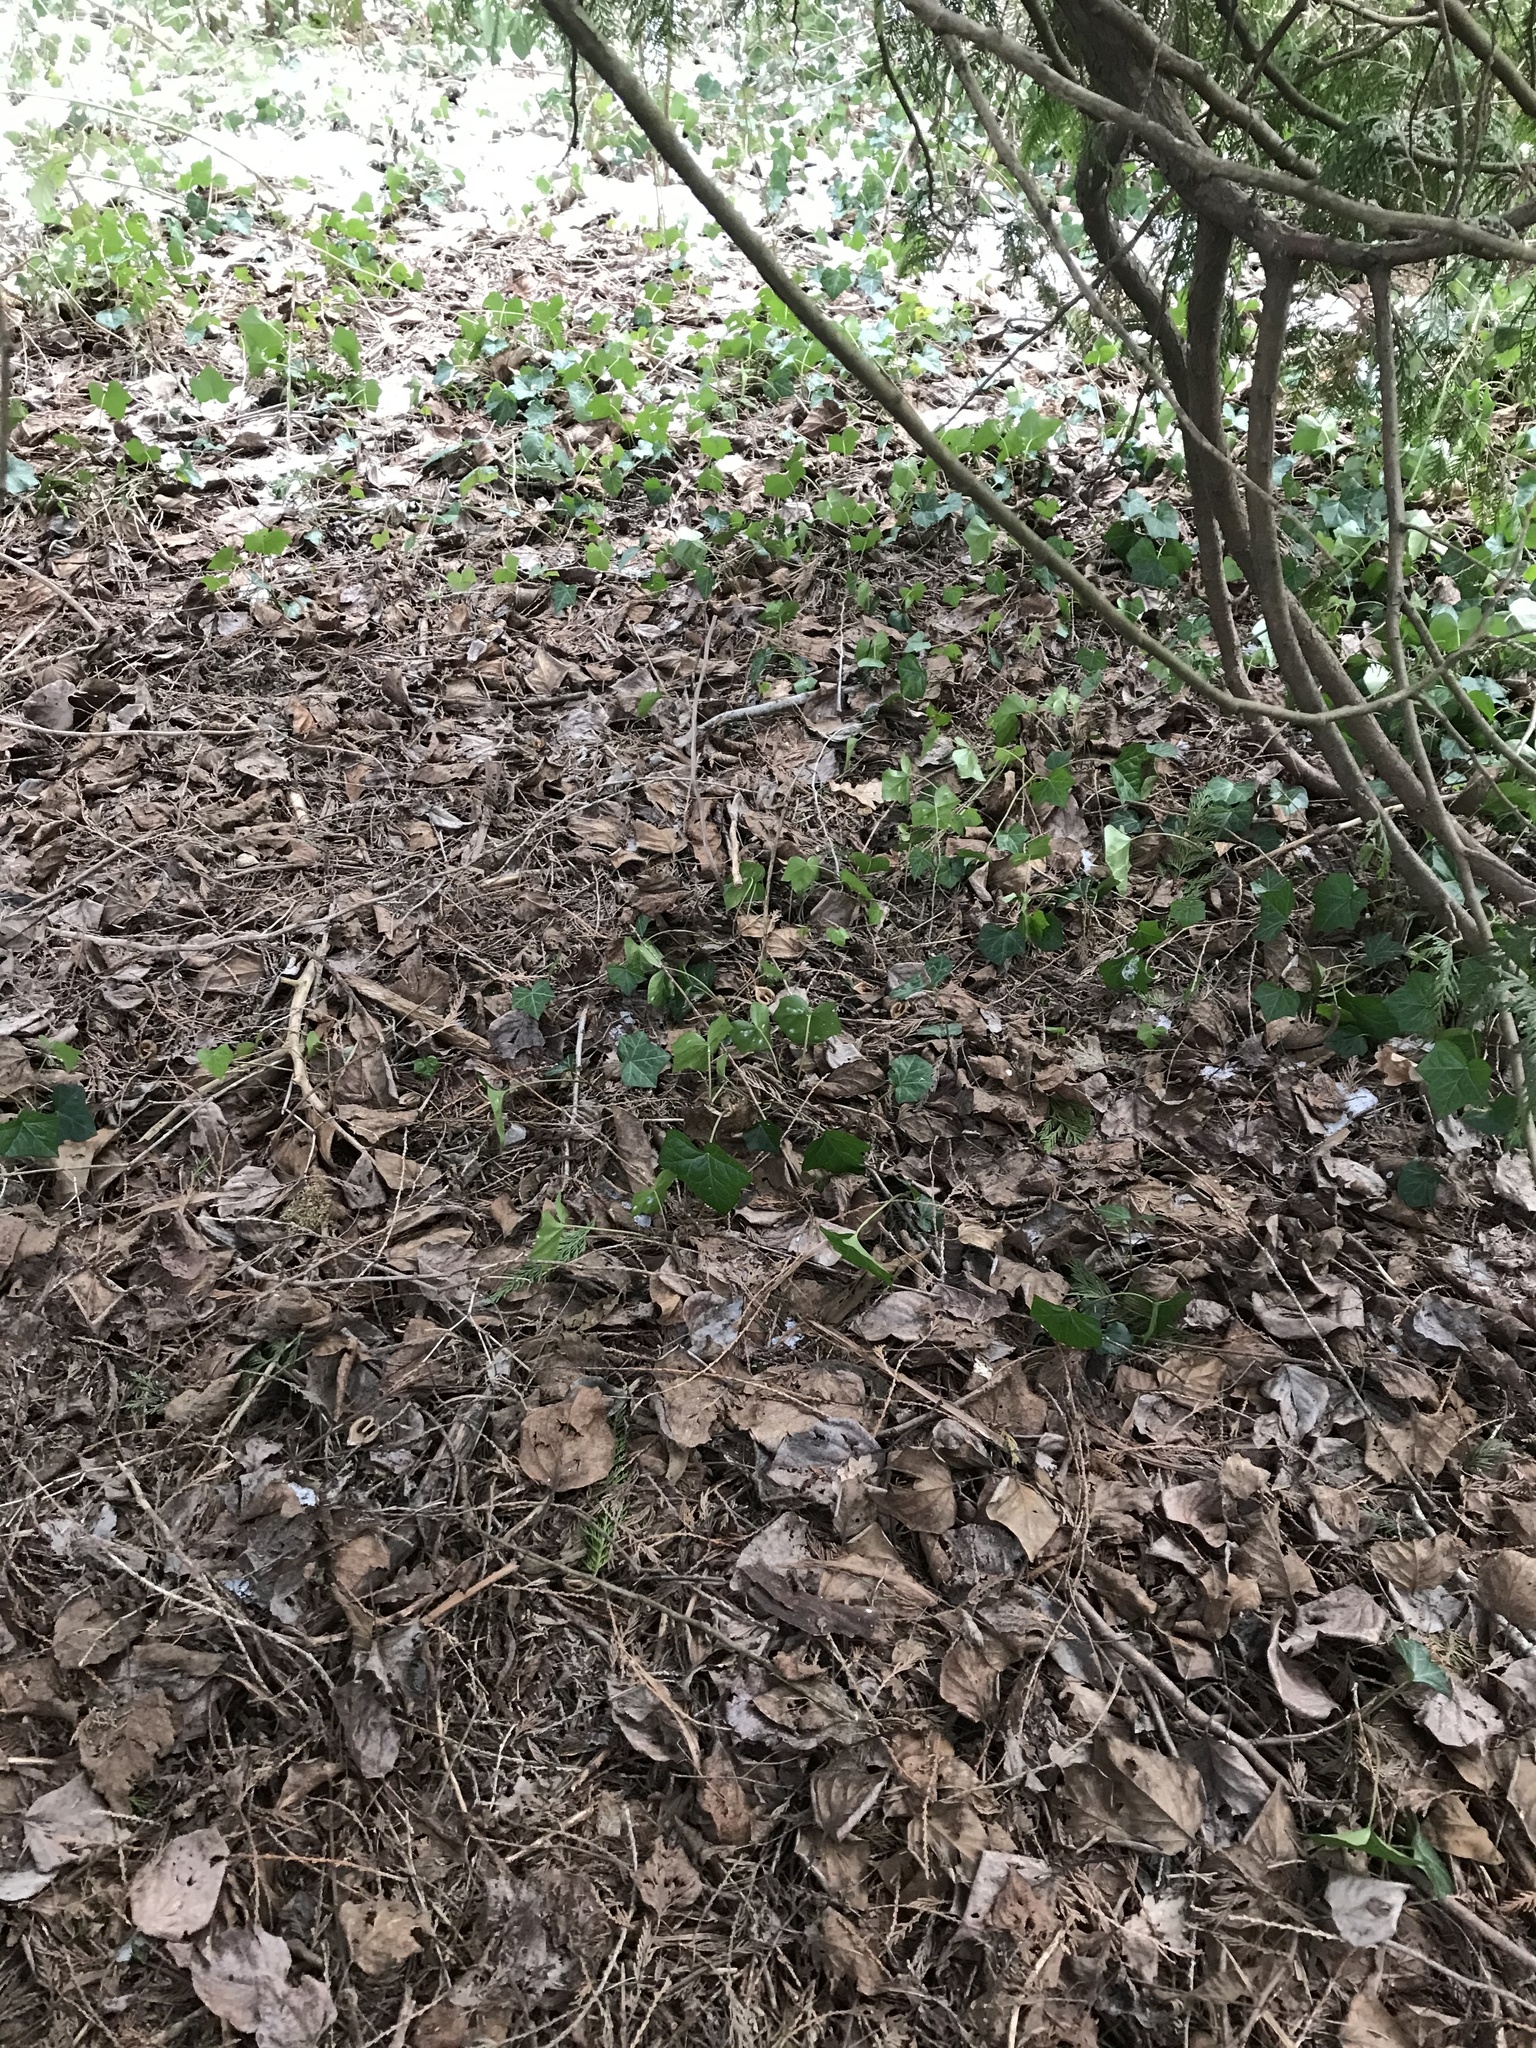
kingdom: Plantae
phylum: Tracheophyta
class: Magnoliopsida
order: Apiales
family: Araliaceae
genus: Hedera
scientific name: Hedera helix
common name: Ivy
